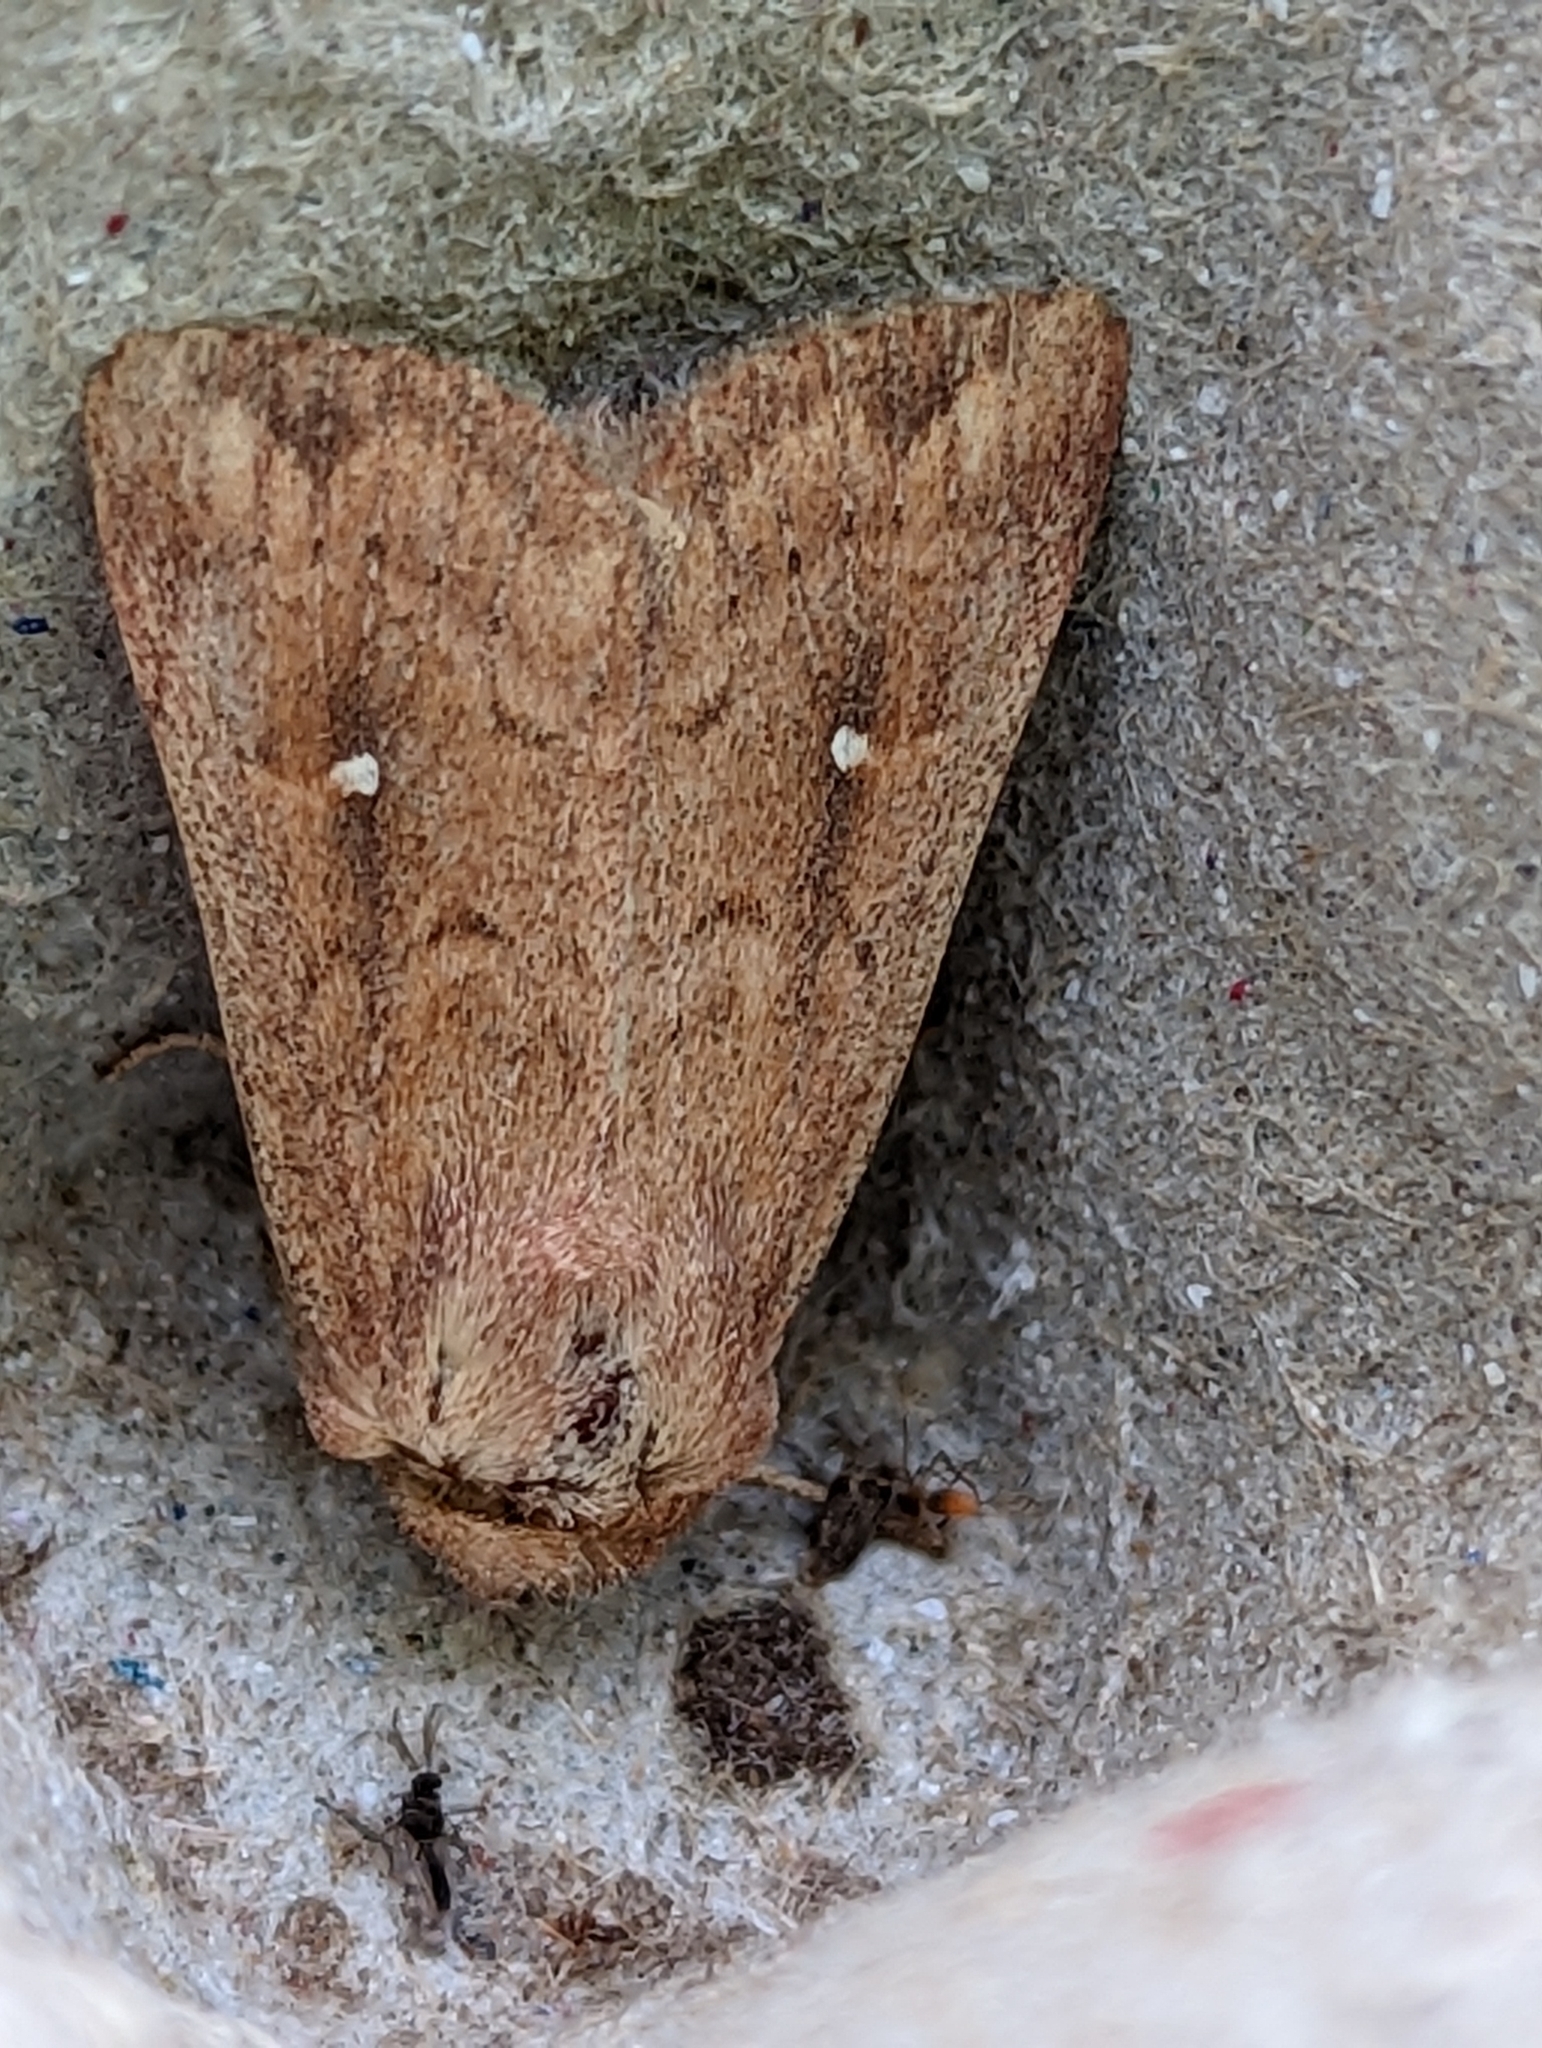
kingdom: Animalia
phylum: Arthropoda
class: Insecta
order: Lepidoptera
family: Noctuidae
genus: Mythimna
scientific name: Mythimna albipuncta
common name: White-point
